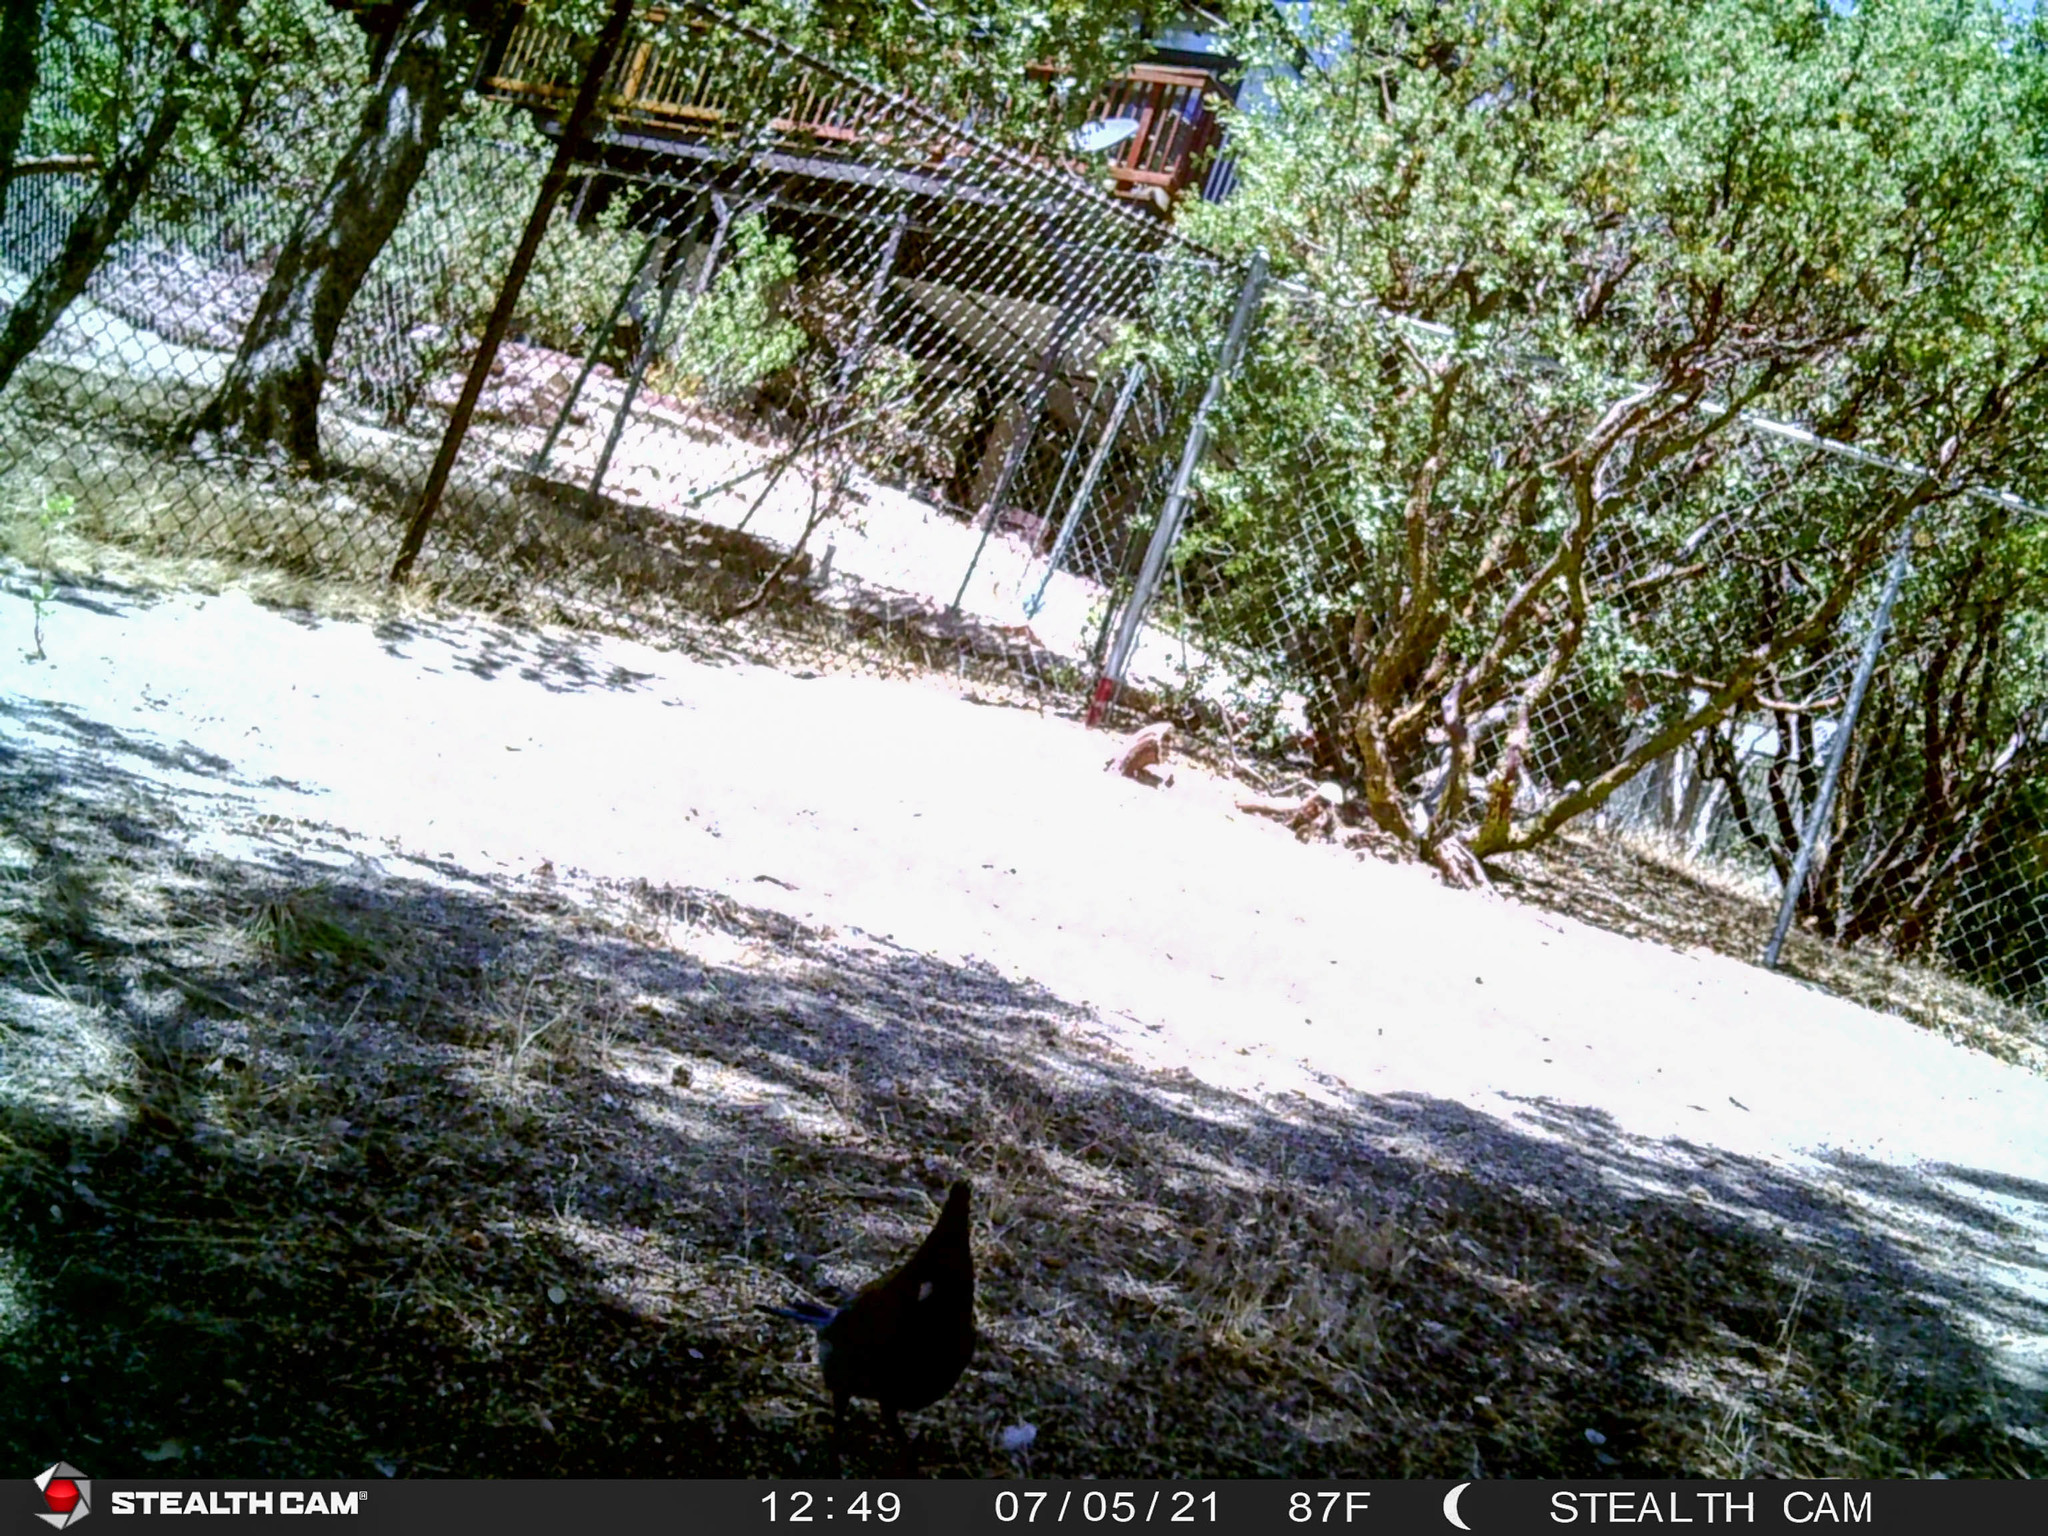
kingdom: Animalia
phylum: Chordata
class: Aves
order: Passeriformes
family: Corvidae
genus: Cyanocitta
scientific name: Cyanocitta stelleri
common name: Steller's jay
